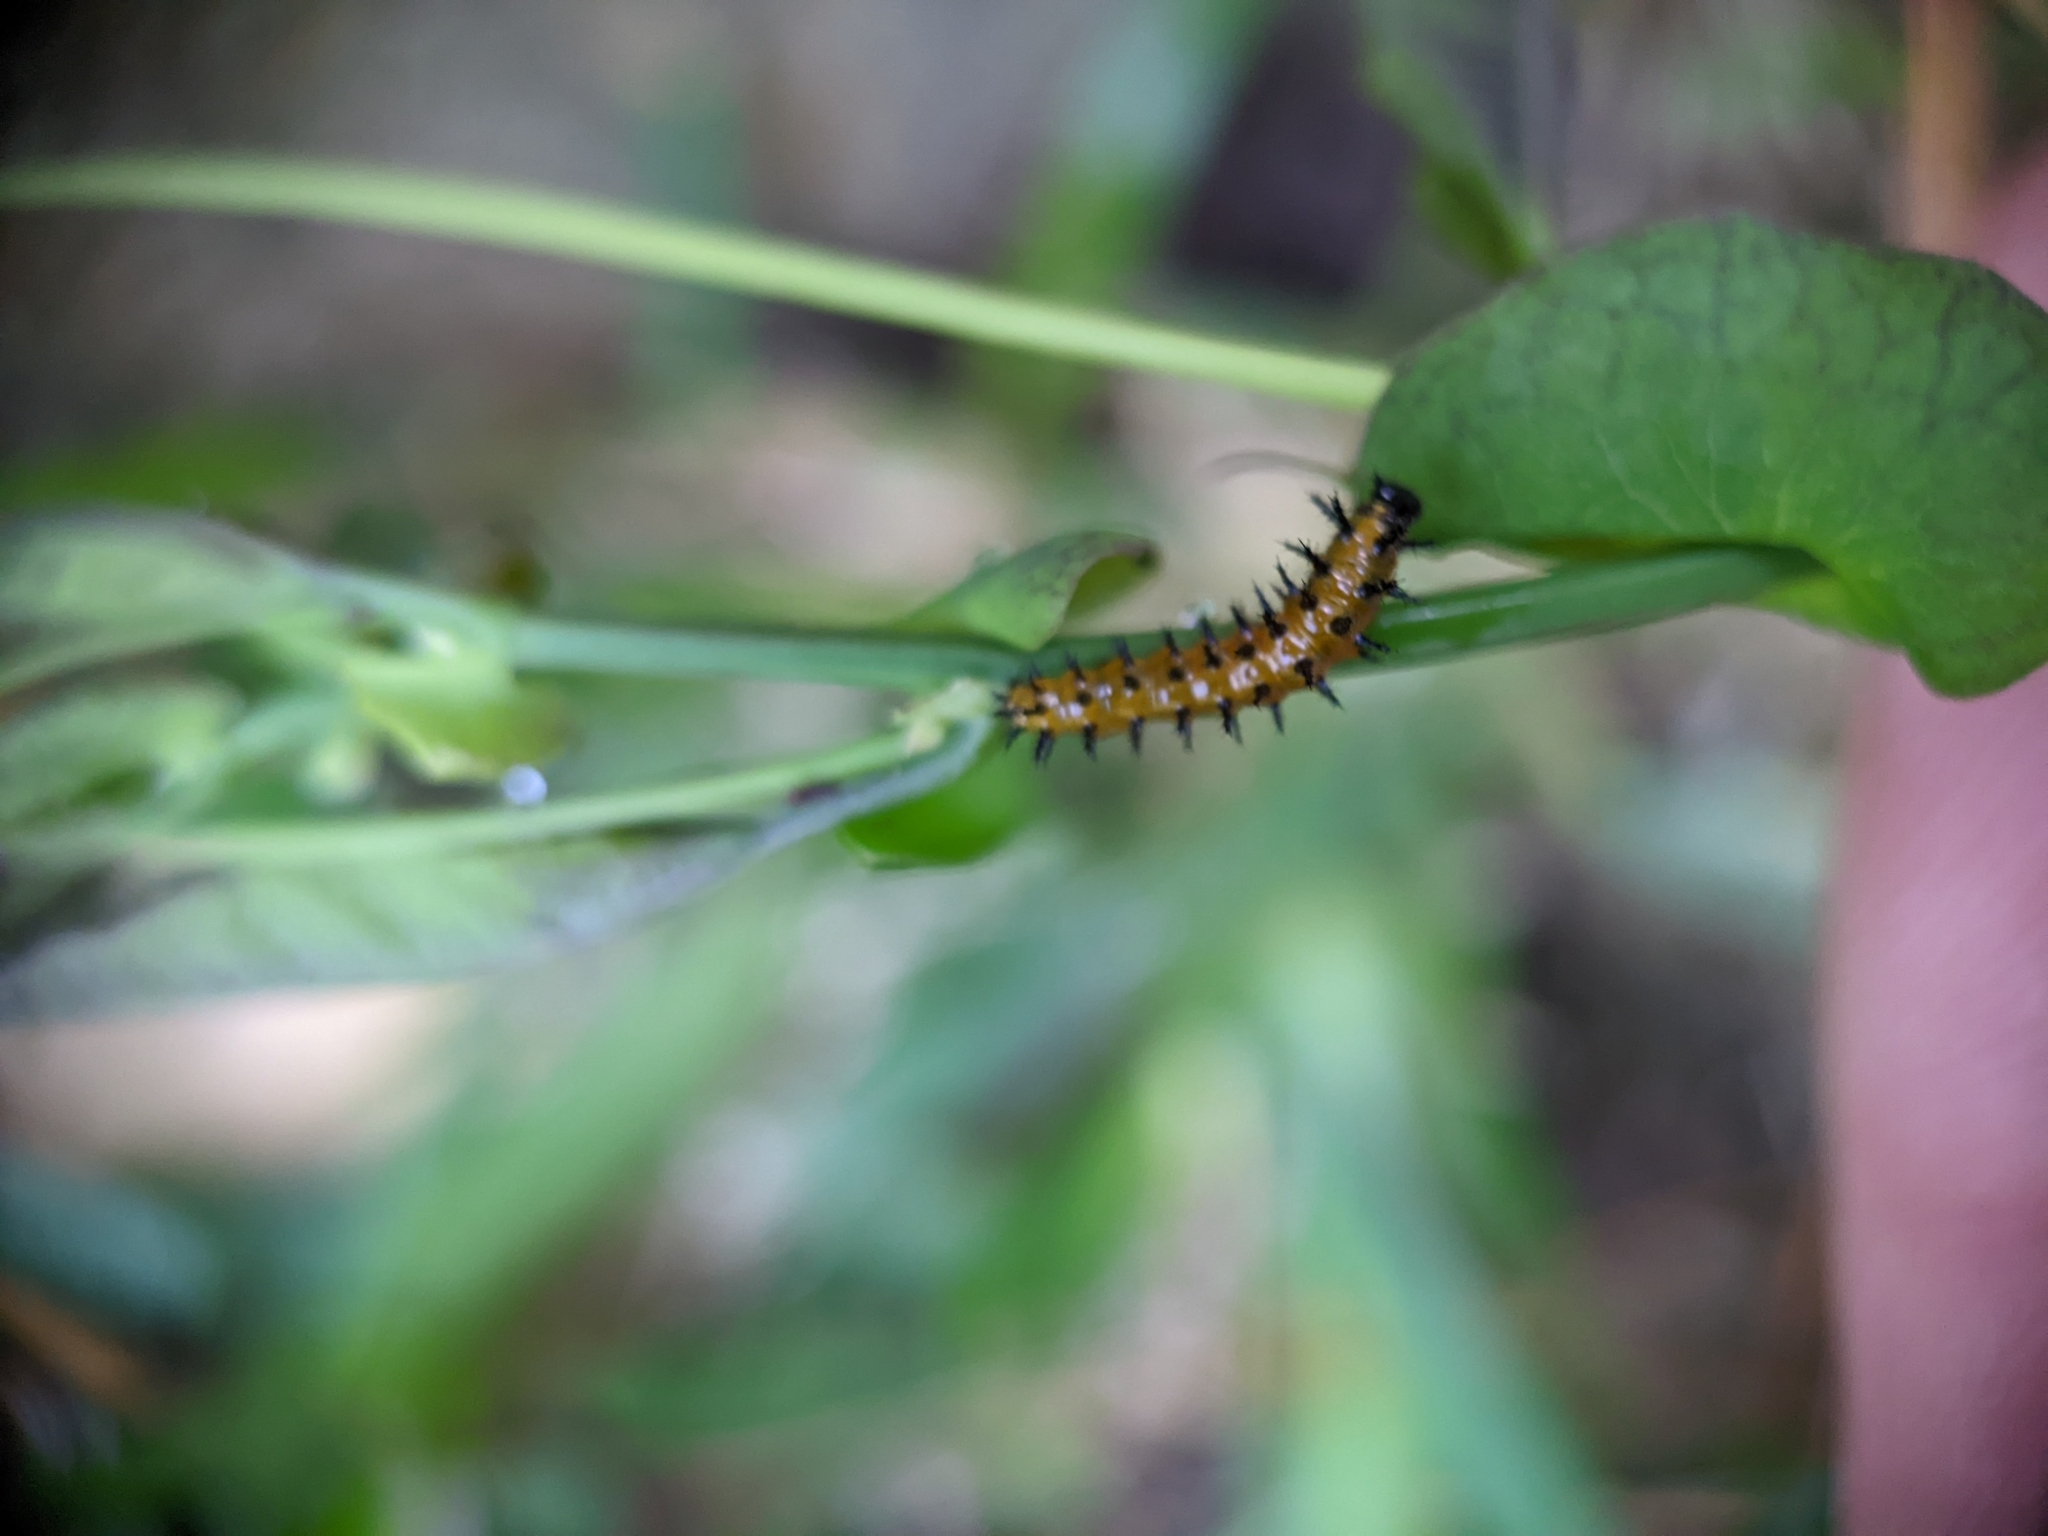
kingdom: Animalia
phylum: Arthropoda
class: Insecta
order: Lepidoptera
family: Nymphalidae
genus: Dione
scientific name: Dione vanillae
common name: Gulf fritillary
